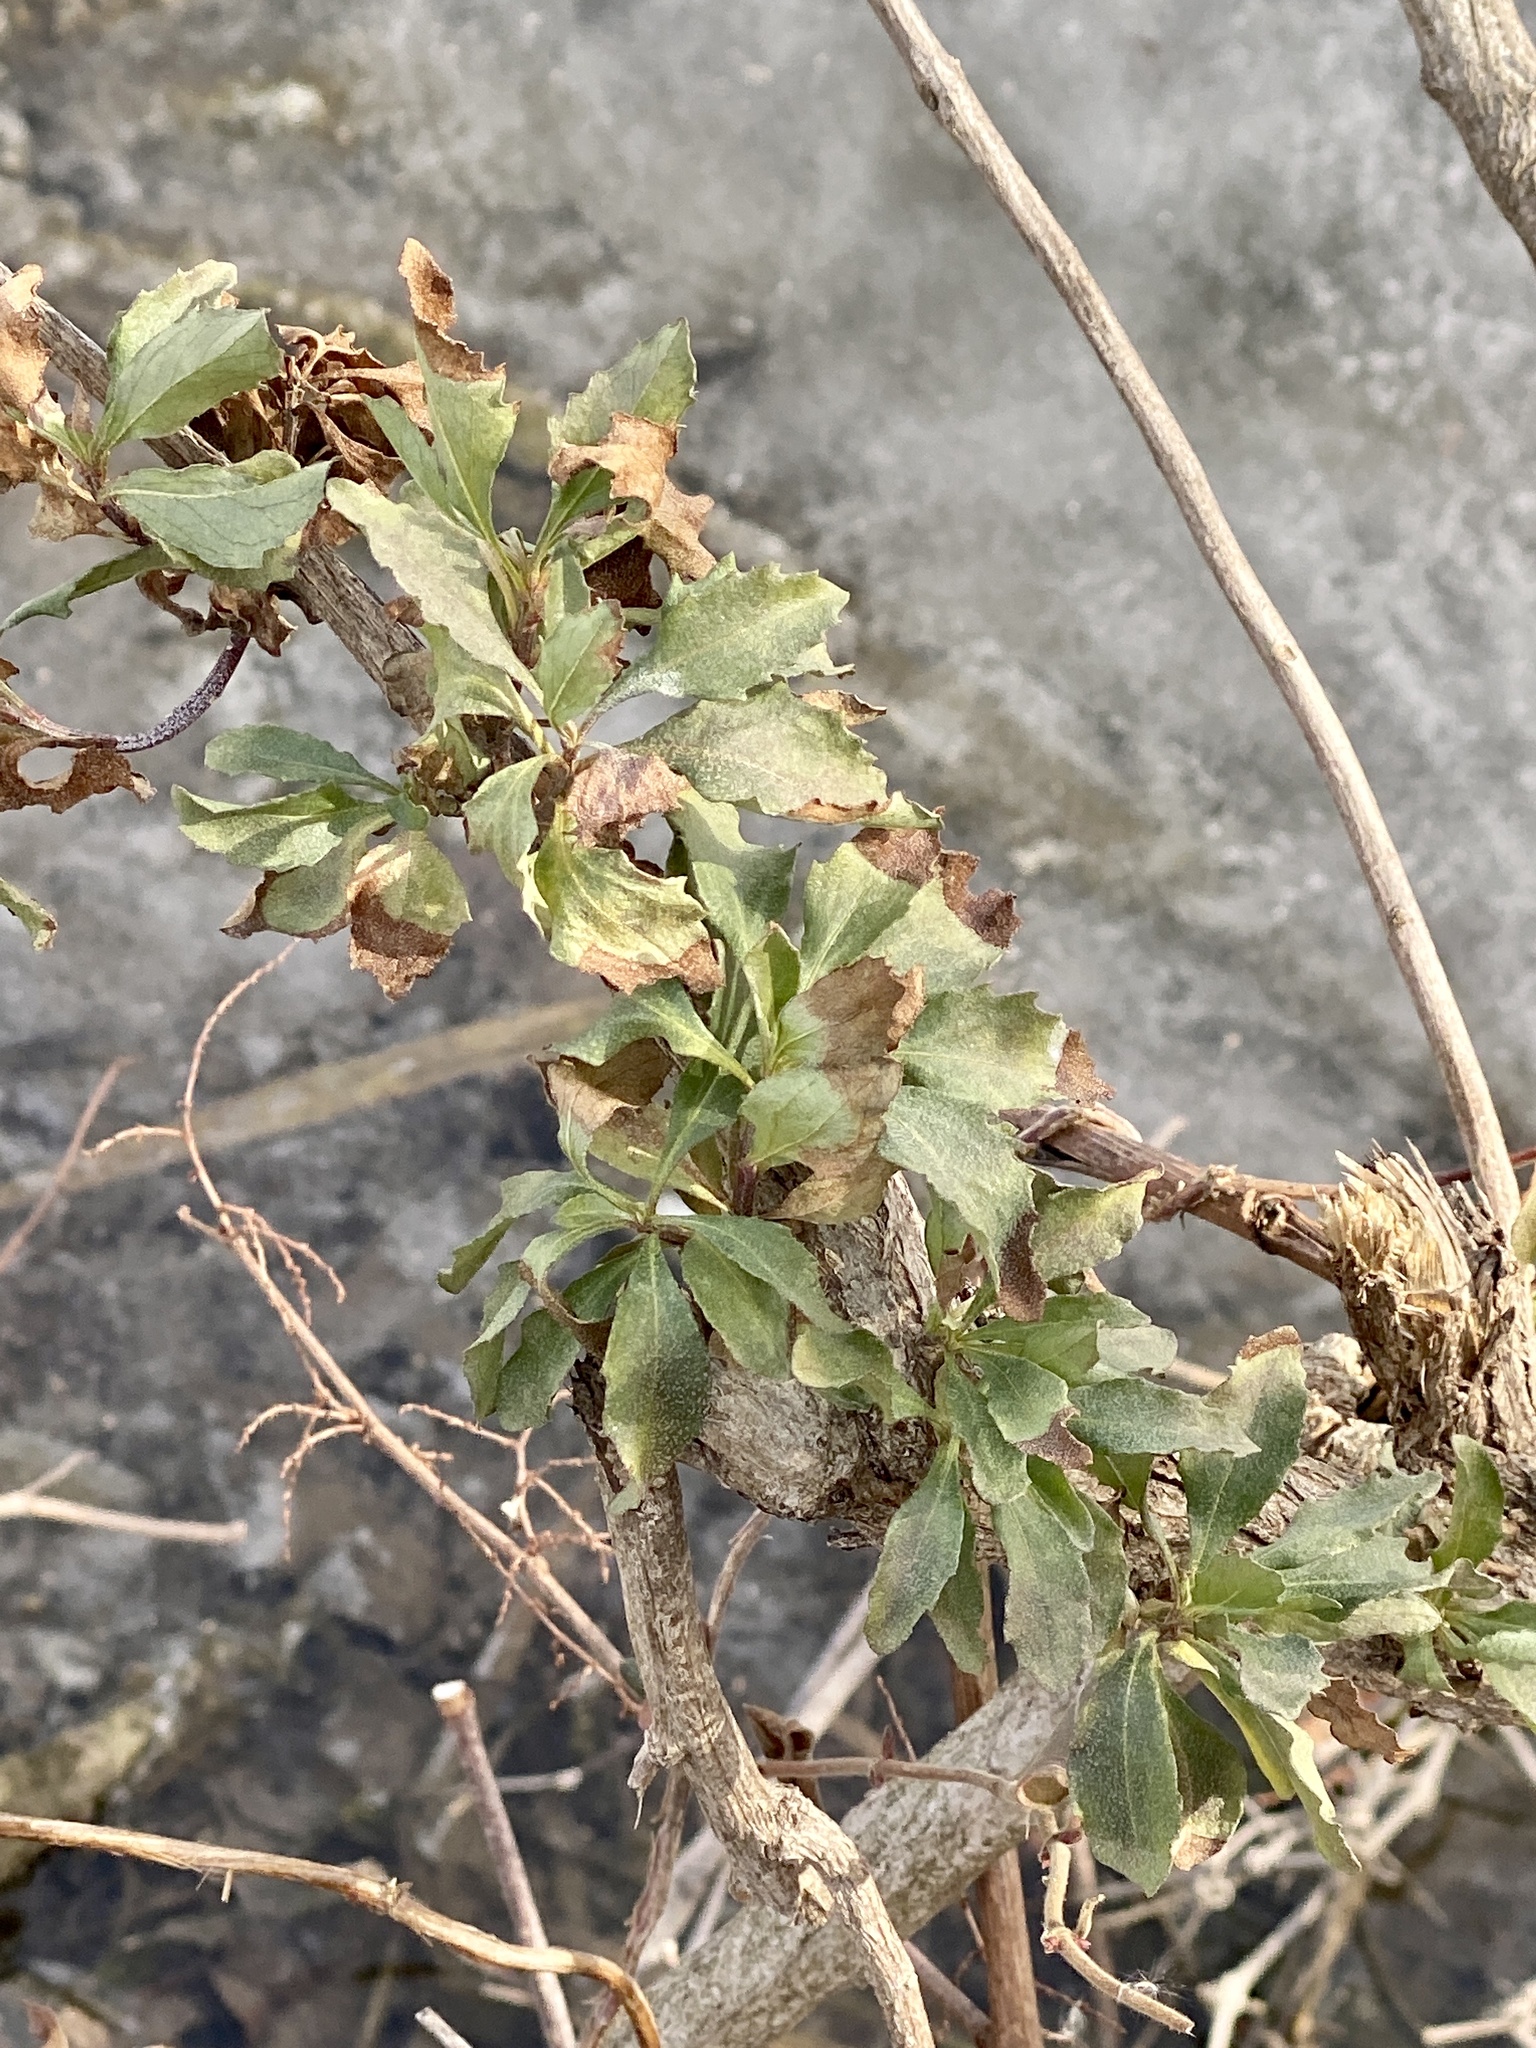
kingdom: Plantae
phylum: Tracheophyta
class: Magnoliopsida
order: Asterales
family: Asteraceae
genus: Baccharis
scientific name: Baccharis halimifolia
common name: Eastern baccharis
